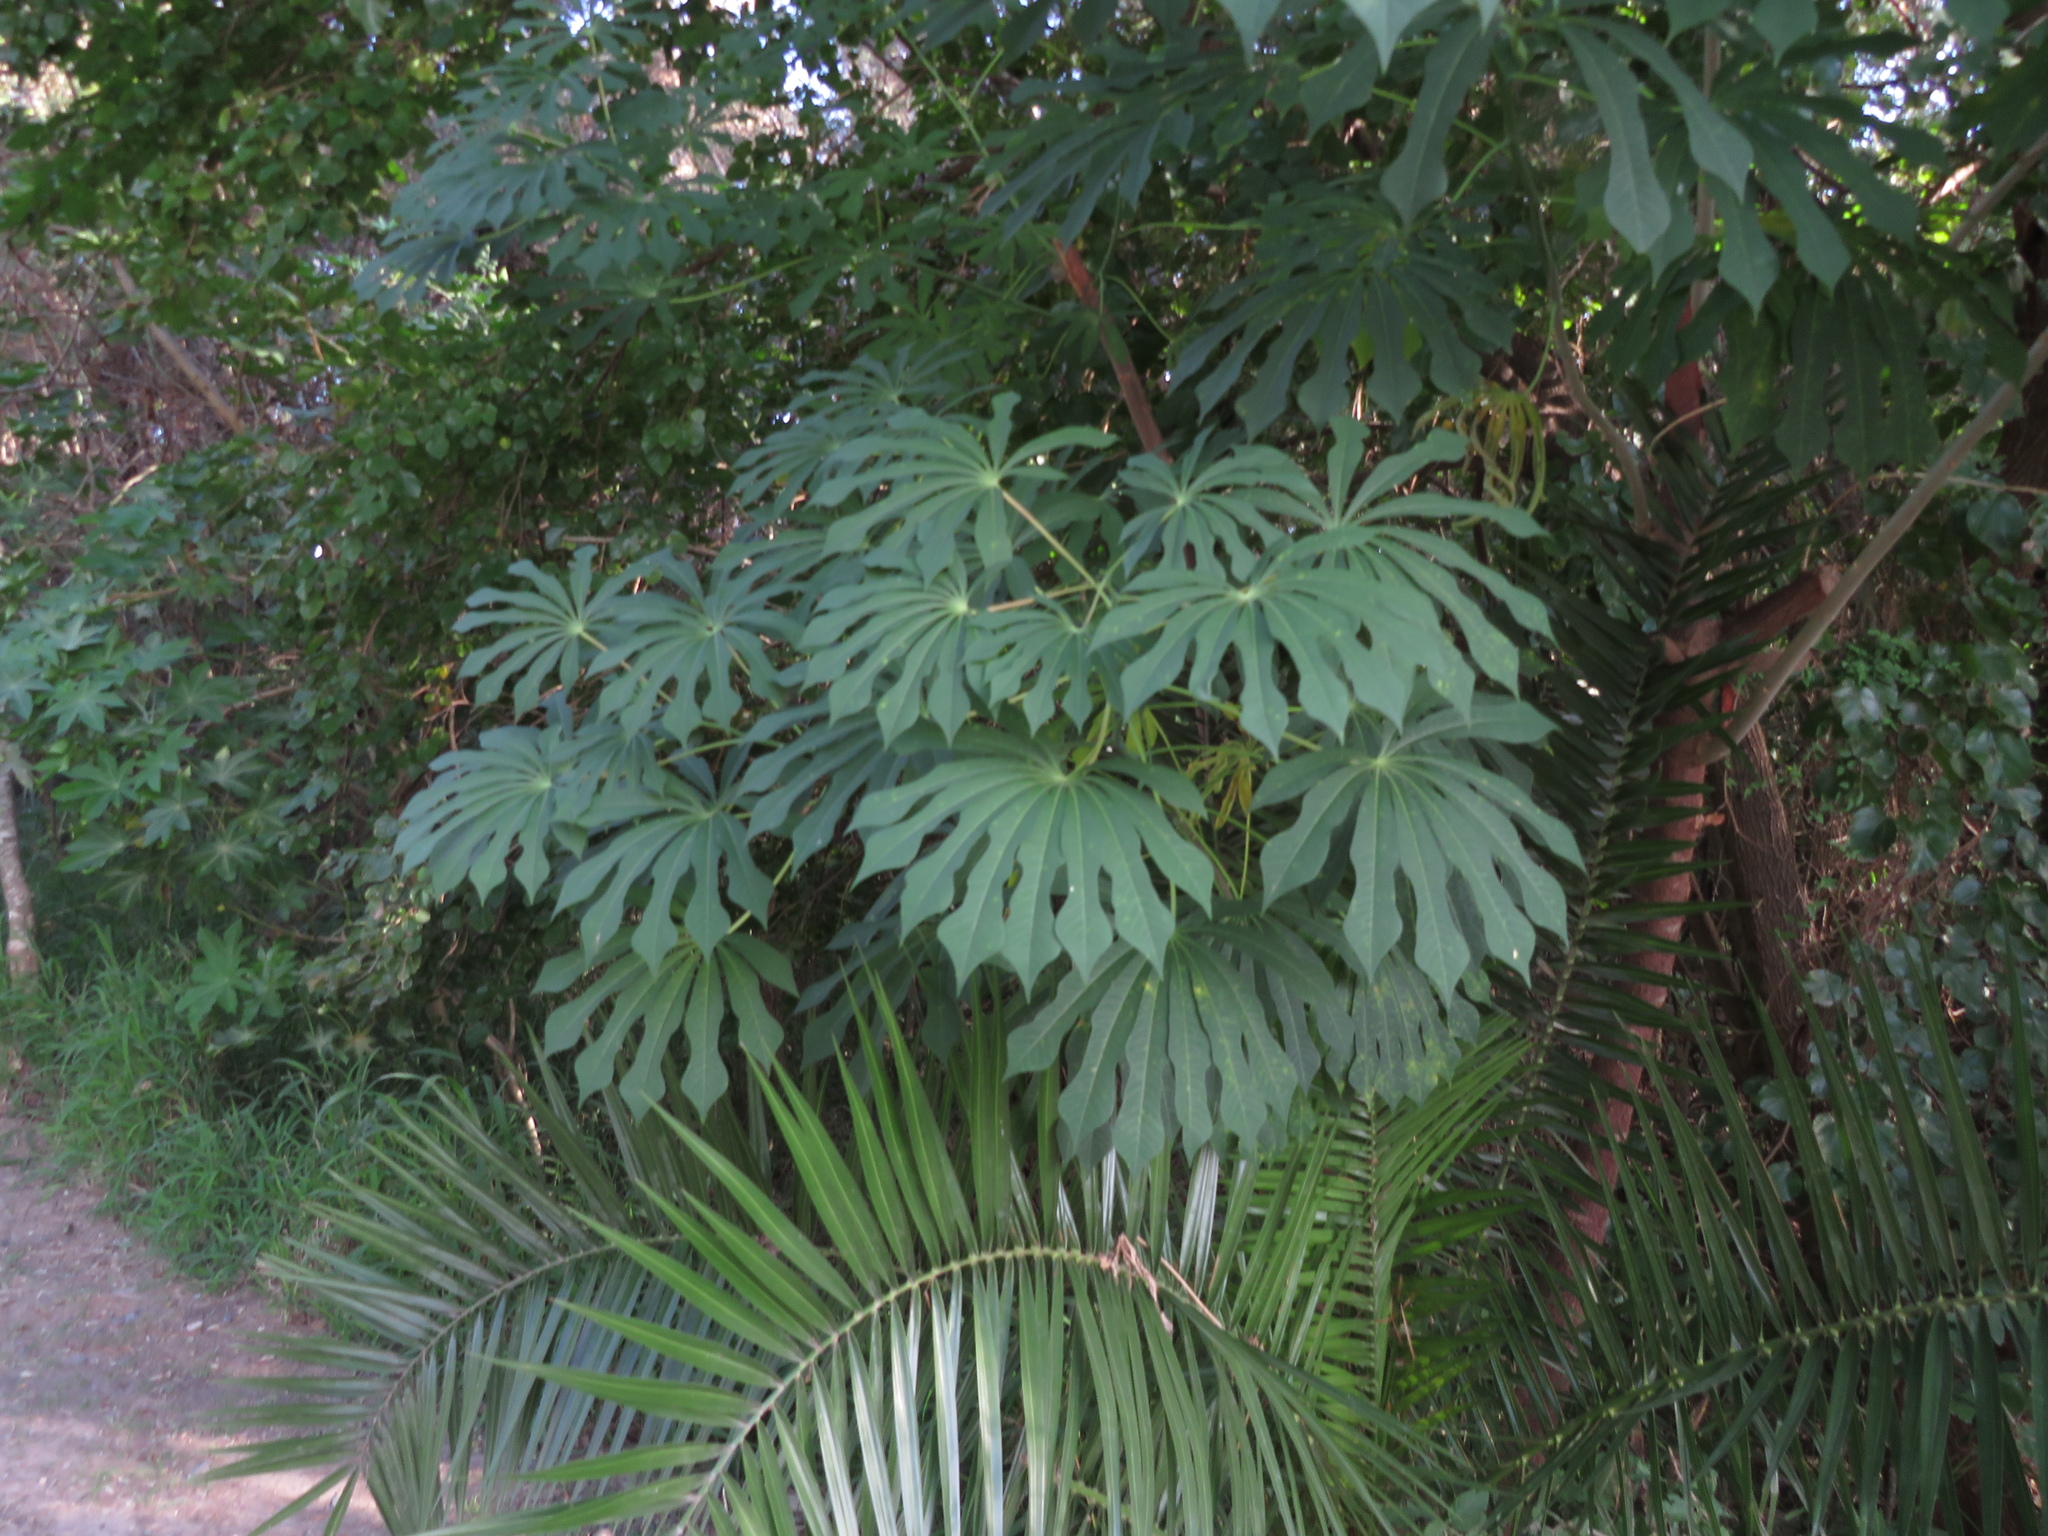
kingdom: Plantae
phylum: Tracheophyta
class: Magnoliopsida
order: Malpighiales
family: Euphorbiaceae
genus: Manihot
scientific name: Manihot grahamii
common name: Graham's manihot
